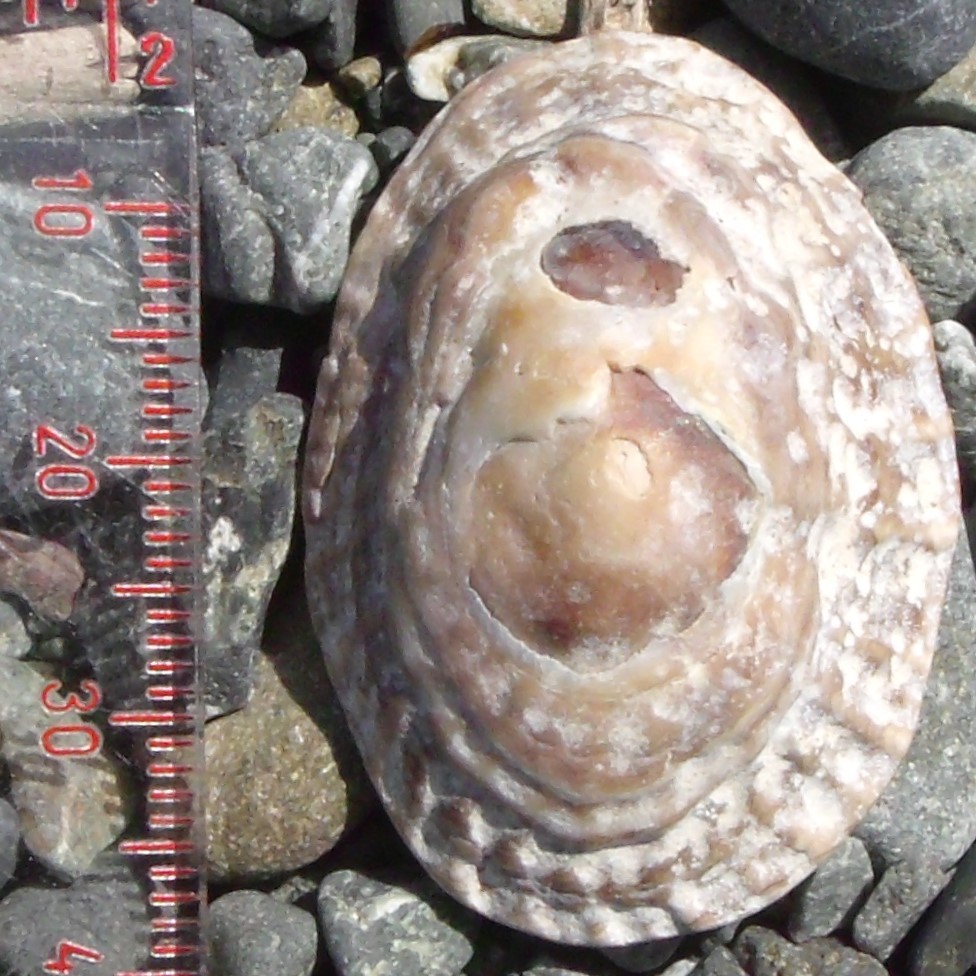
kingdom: Animalia
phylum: Mollusca
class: Gastropoda
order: Siphonariida
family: Siphonariidae
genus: Benhamina
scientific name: Benhamina obliquata
